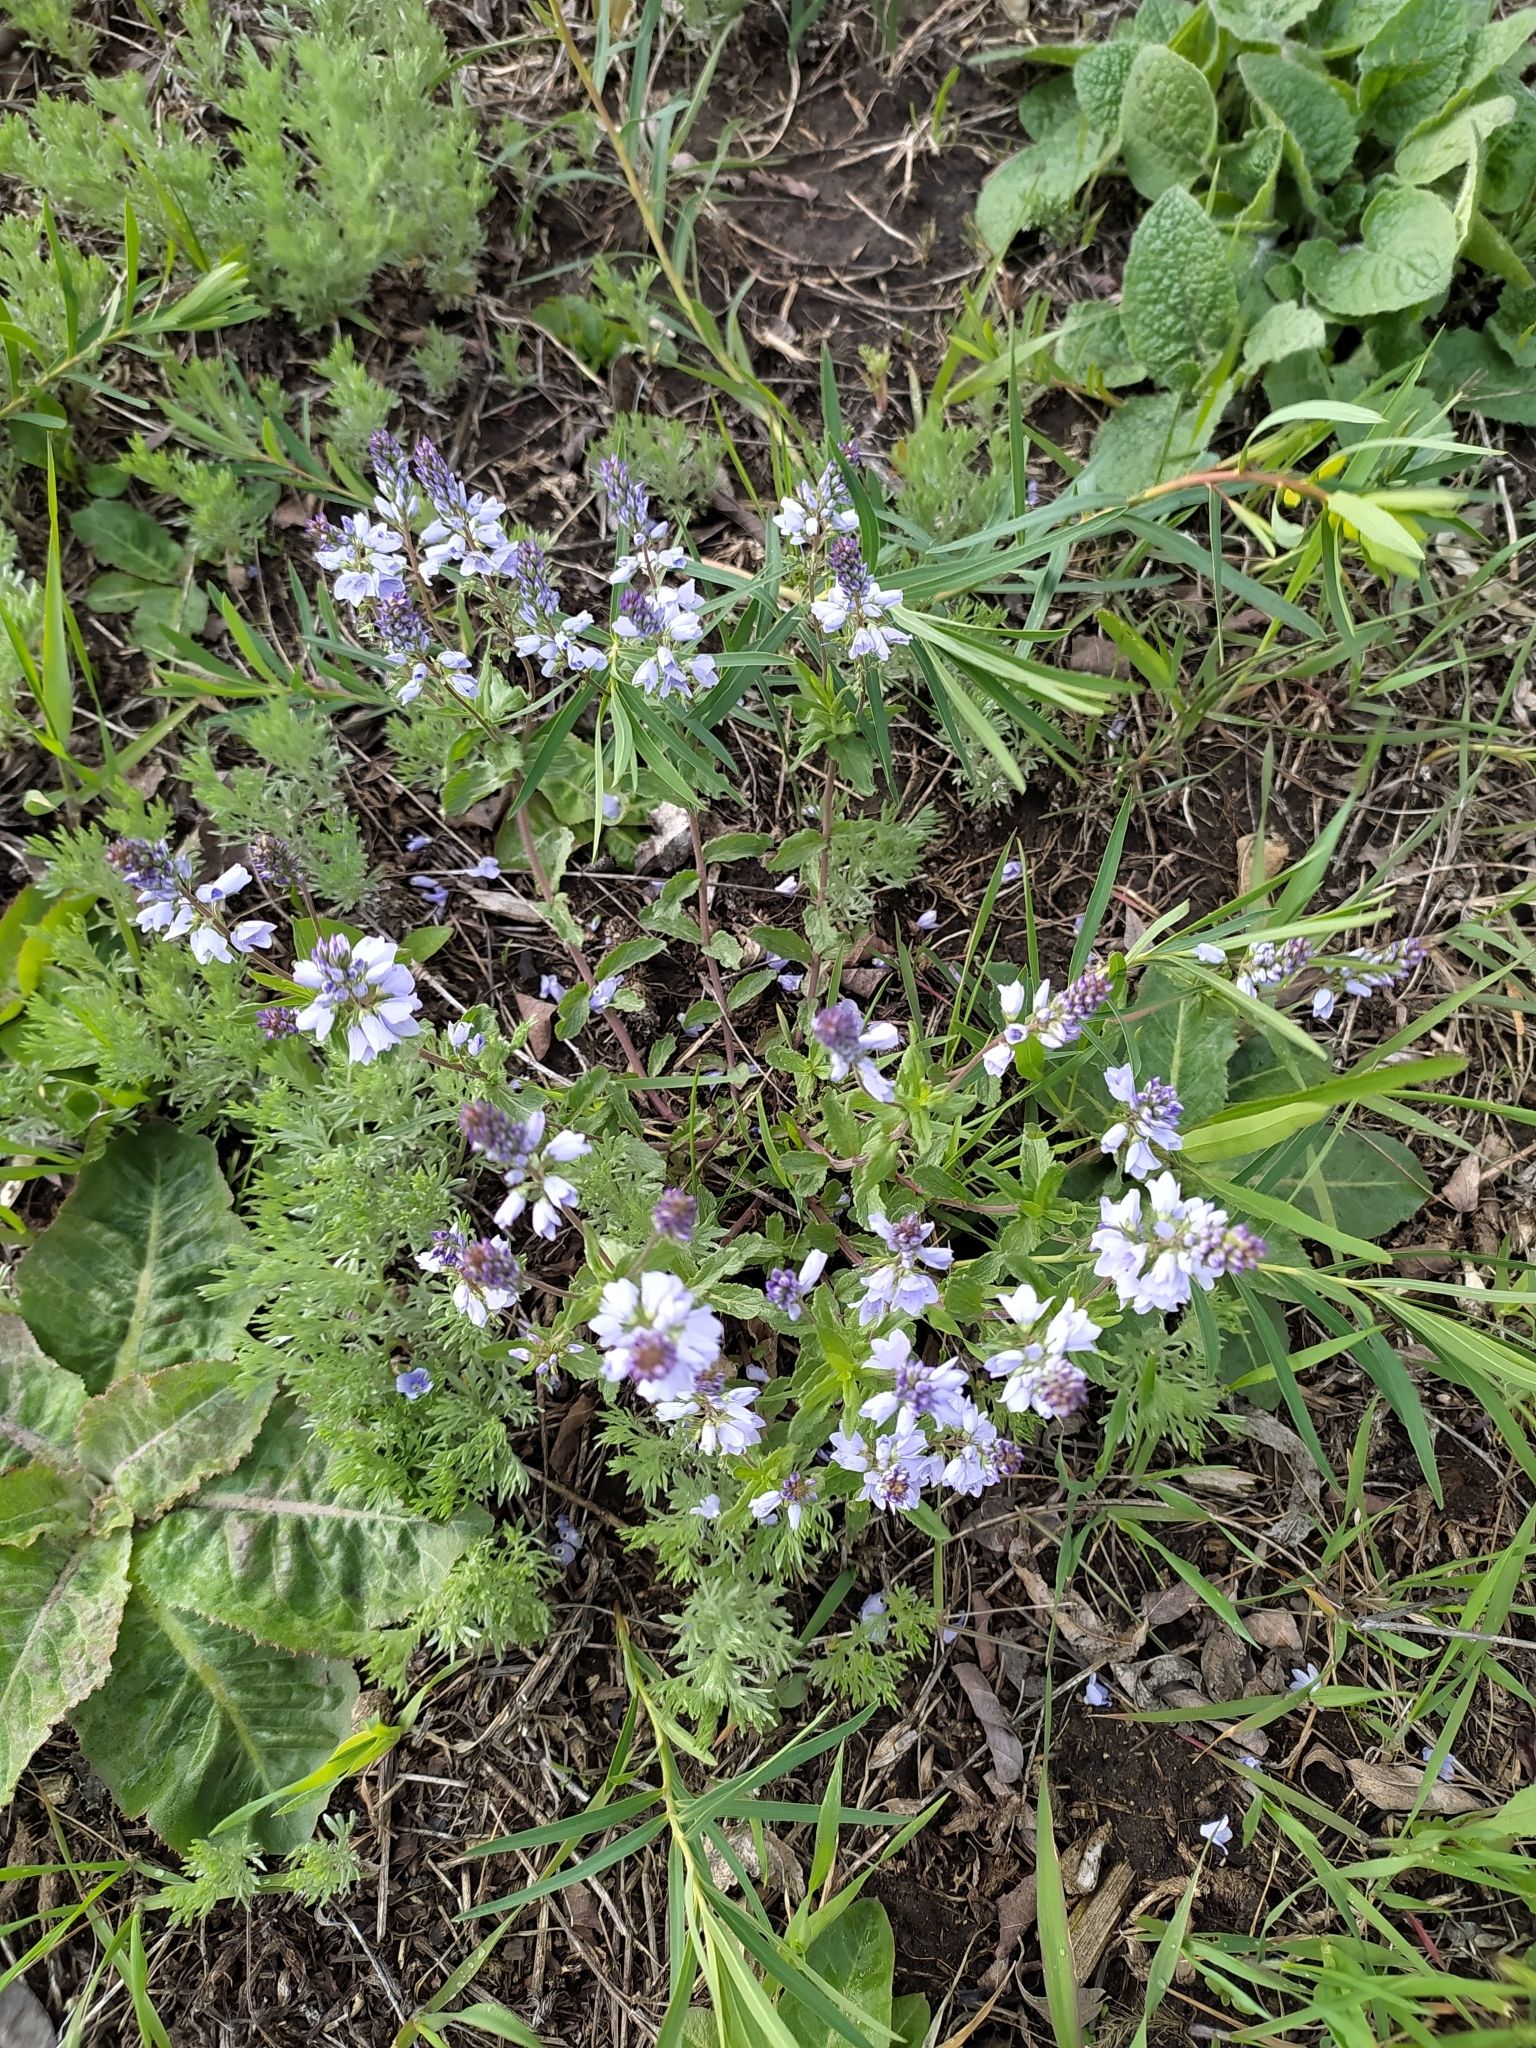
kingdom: Plantae
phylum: Tracheophyta
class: Magnoliopsida
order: Lamiales
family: Plantaginaceae
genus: Veronica
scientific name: Veronica prostrata
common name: Prostrate speedwell
